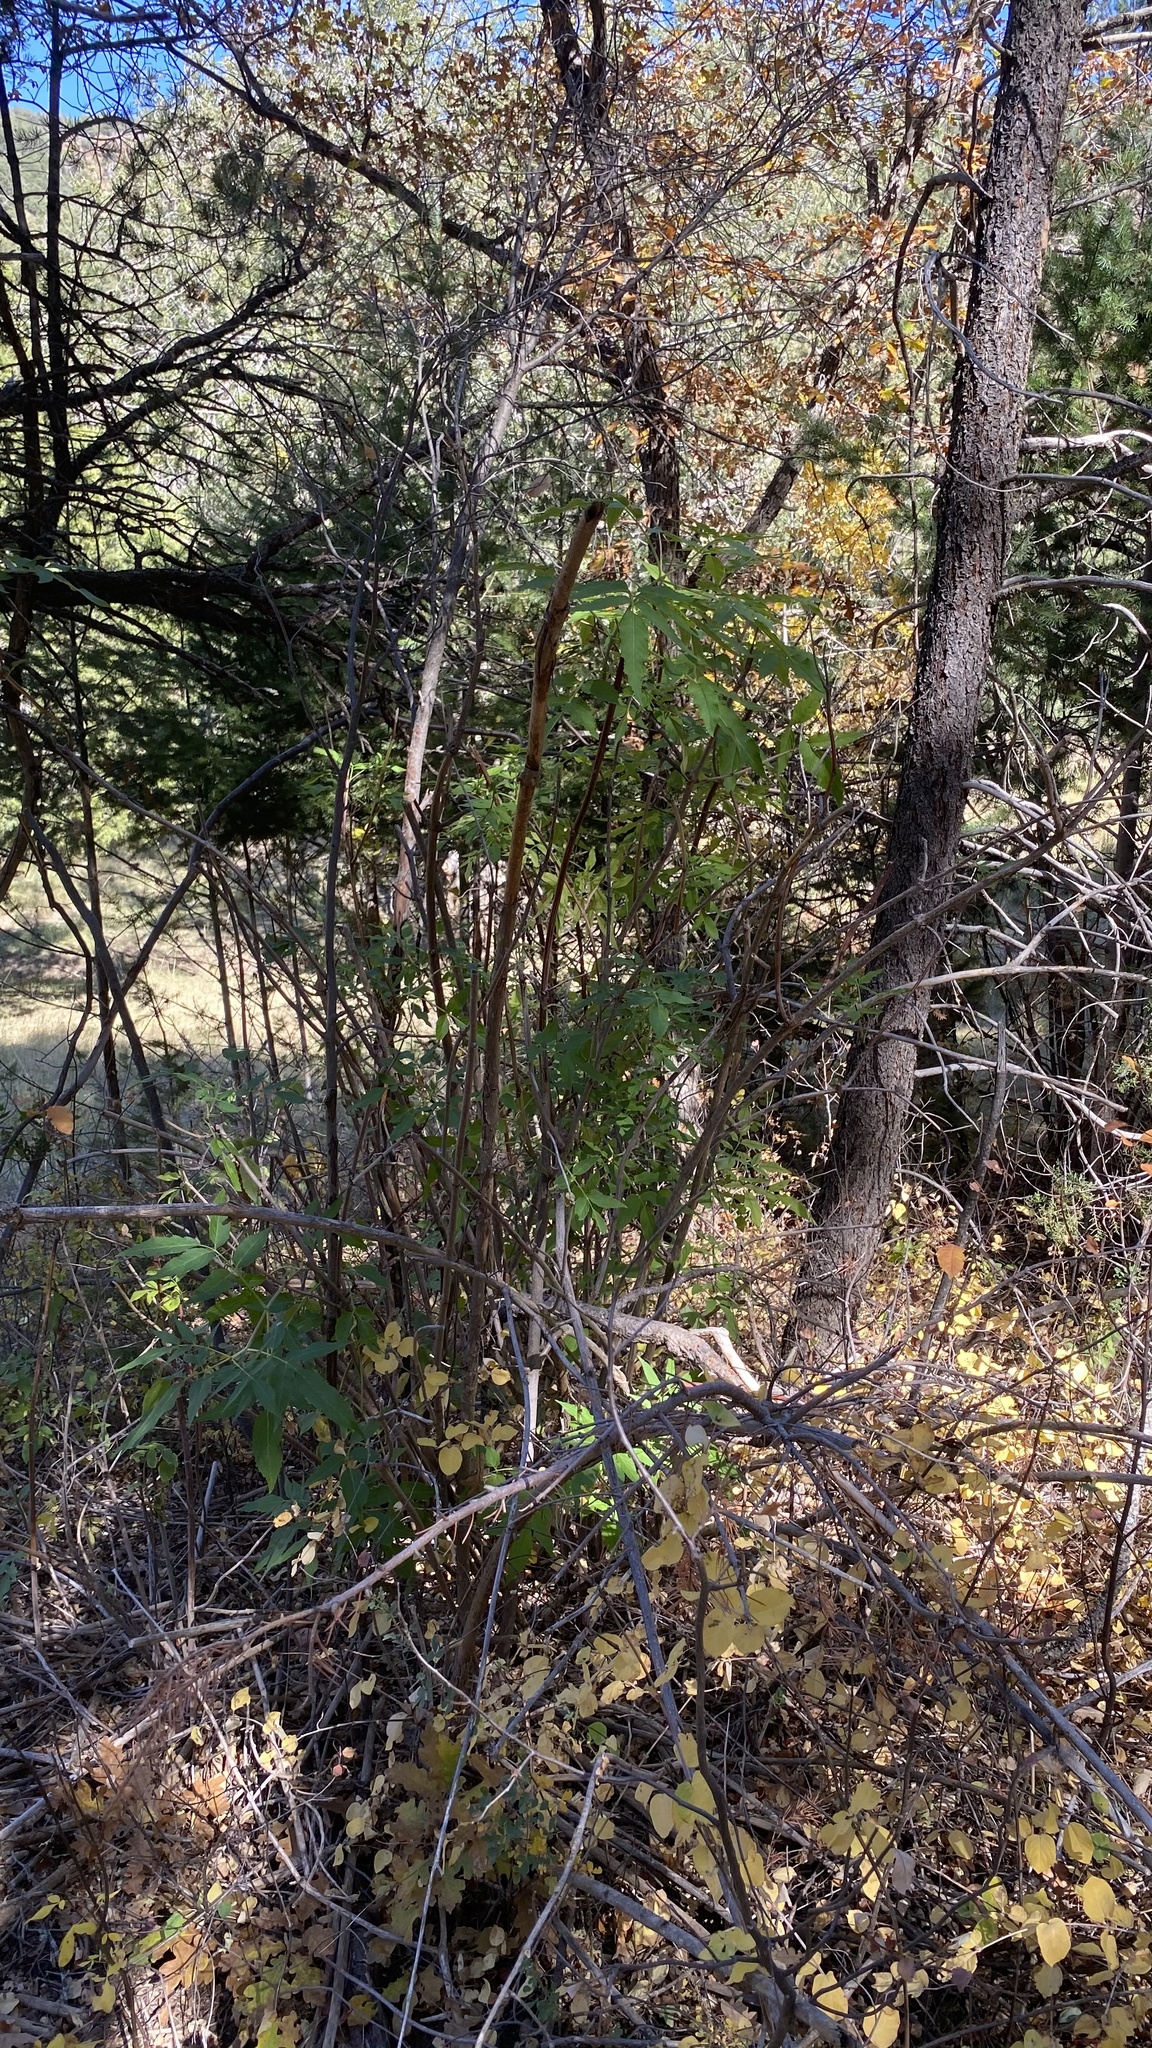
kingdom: Plantae
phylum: Tracheophyta
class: Magnoliopsida
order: Dipsacales
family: Viburnaceae
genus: Sambucus
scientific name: Sambucus cerulea
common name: Blue elder
